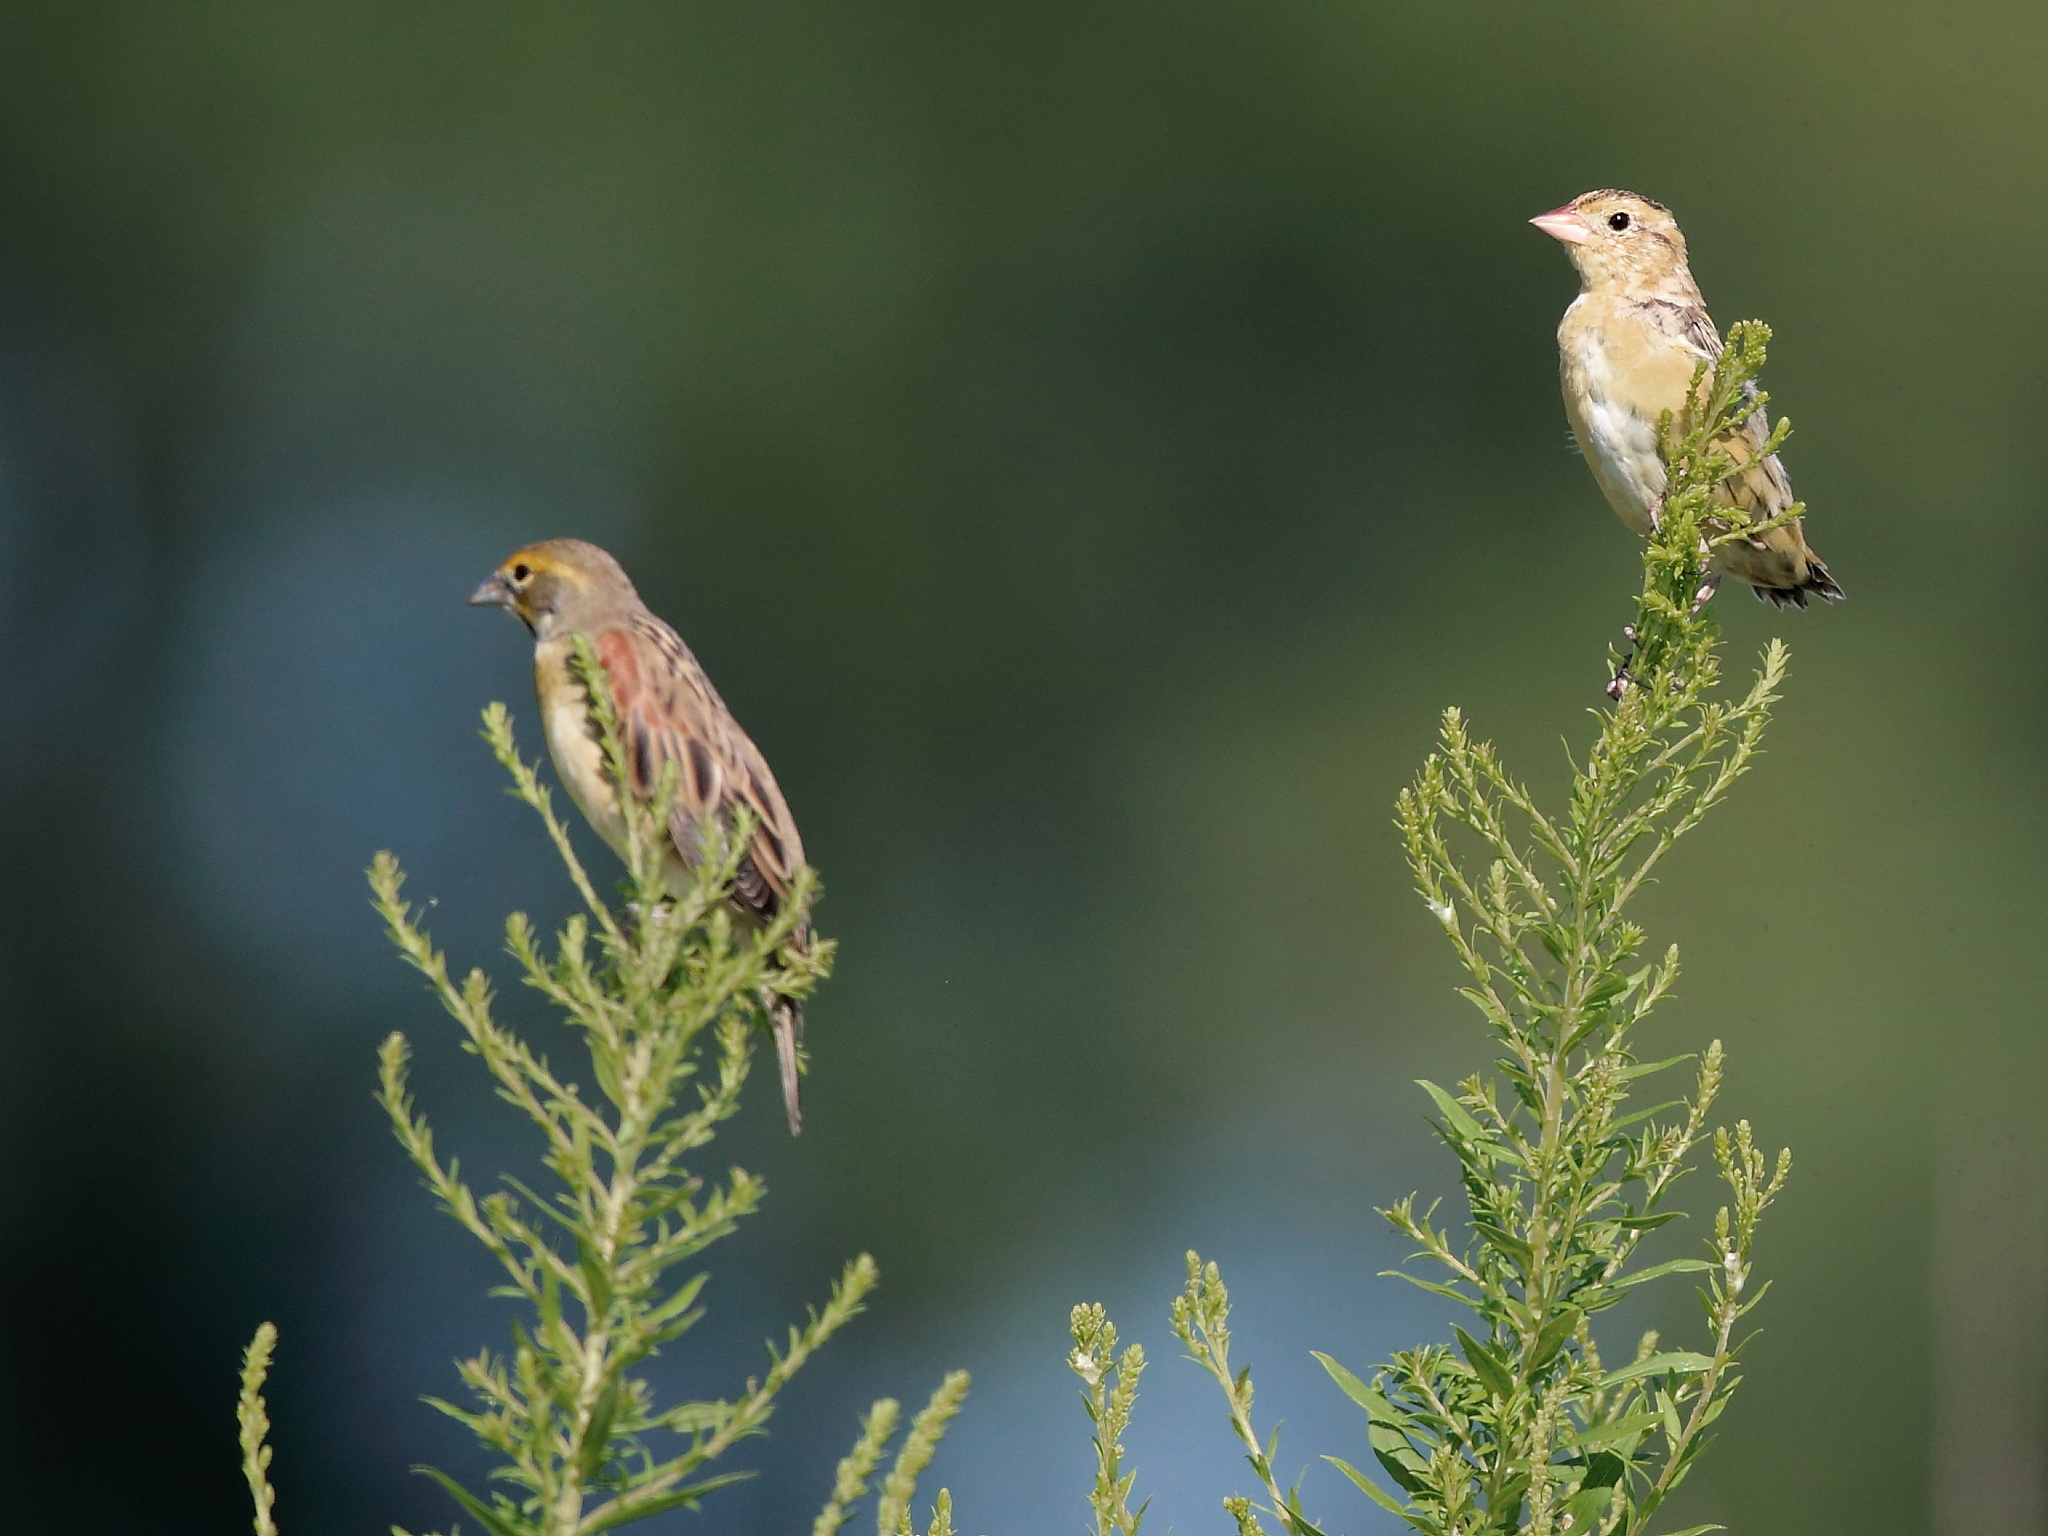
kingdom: Animalia
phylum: Chordata
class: Aves
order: Passeriformes
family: Icteridae
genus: Dolichonyx
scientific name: Dolichonyx oryzivorus
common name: Bobolink
